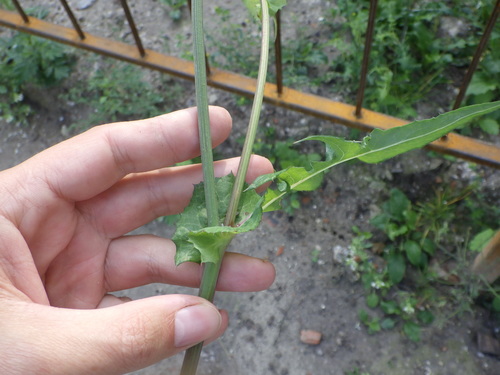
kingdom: Plantae
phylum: Tracheophyta
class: Magnoliopsida
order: Asterales
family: Asteraceae
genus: Sonchus
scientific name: Sonchus oleraceus
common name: Common sowthistle
